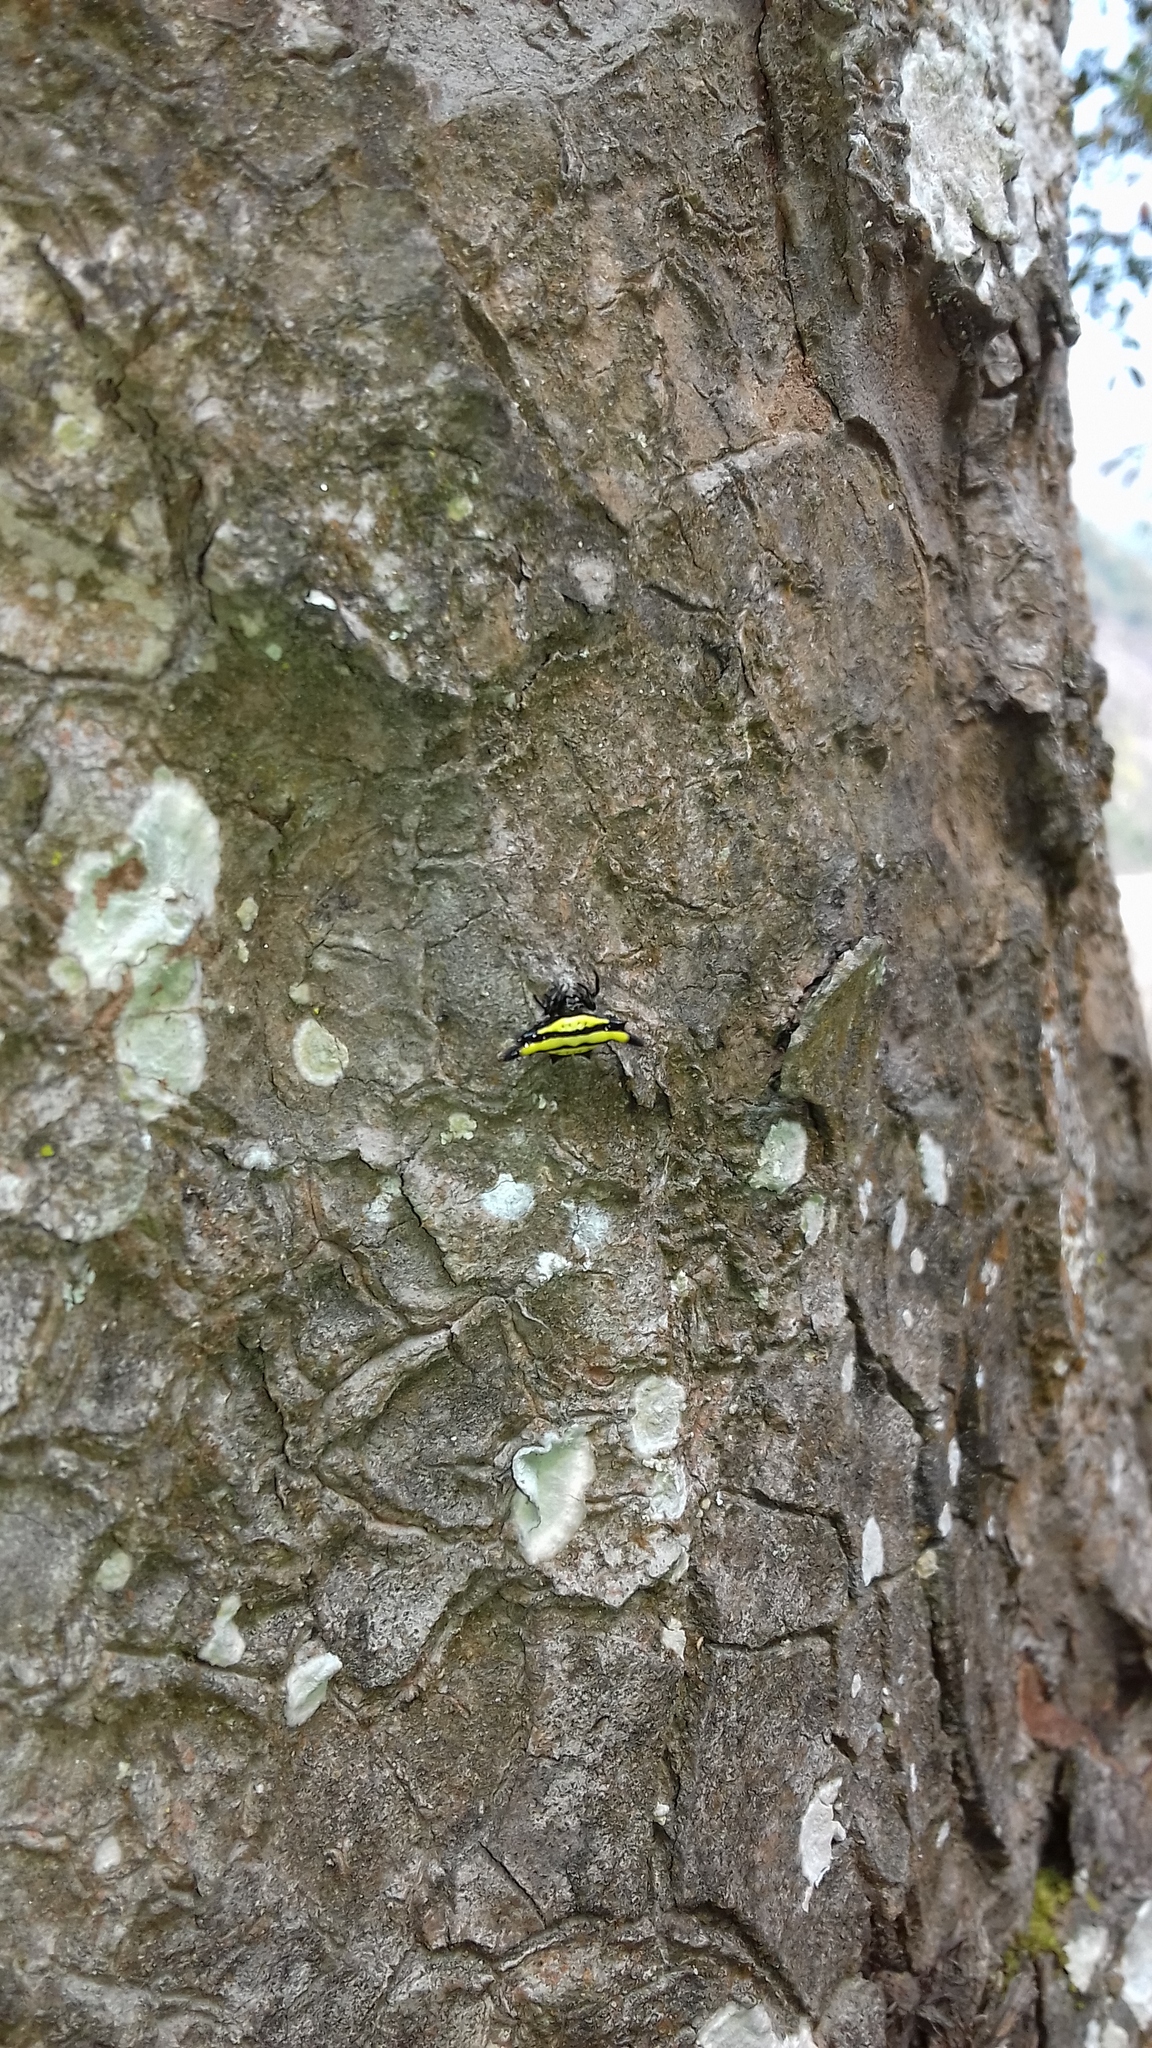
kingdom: Animalia
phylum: Arthropoda
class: Arachnida
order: Araneae
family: Araneidae
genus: Gasteracantha
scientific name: Gasteracantha diadesmia
